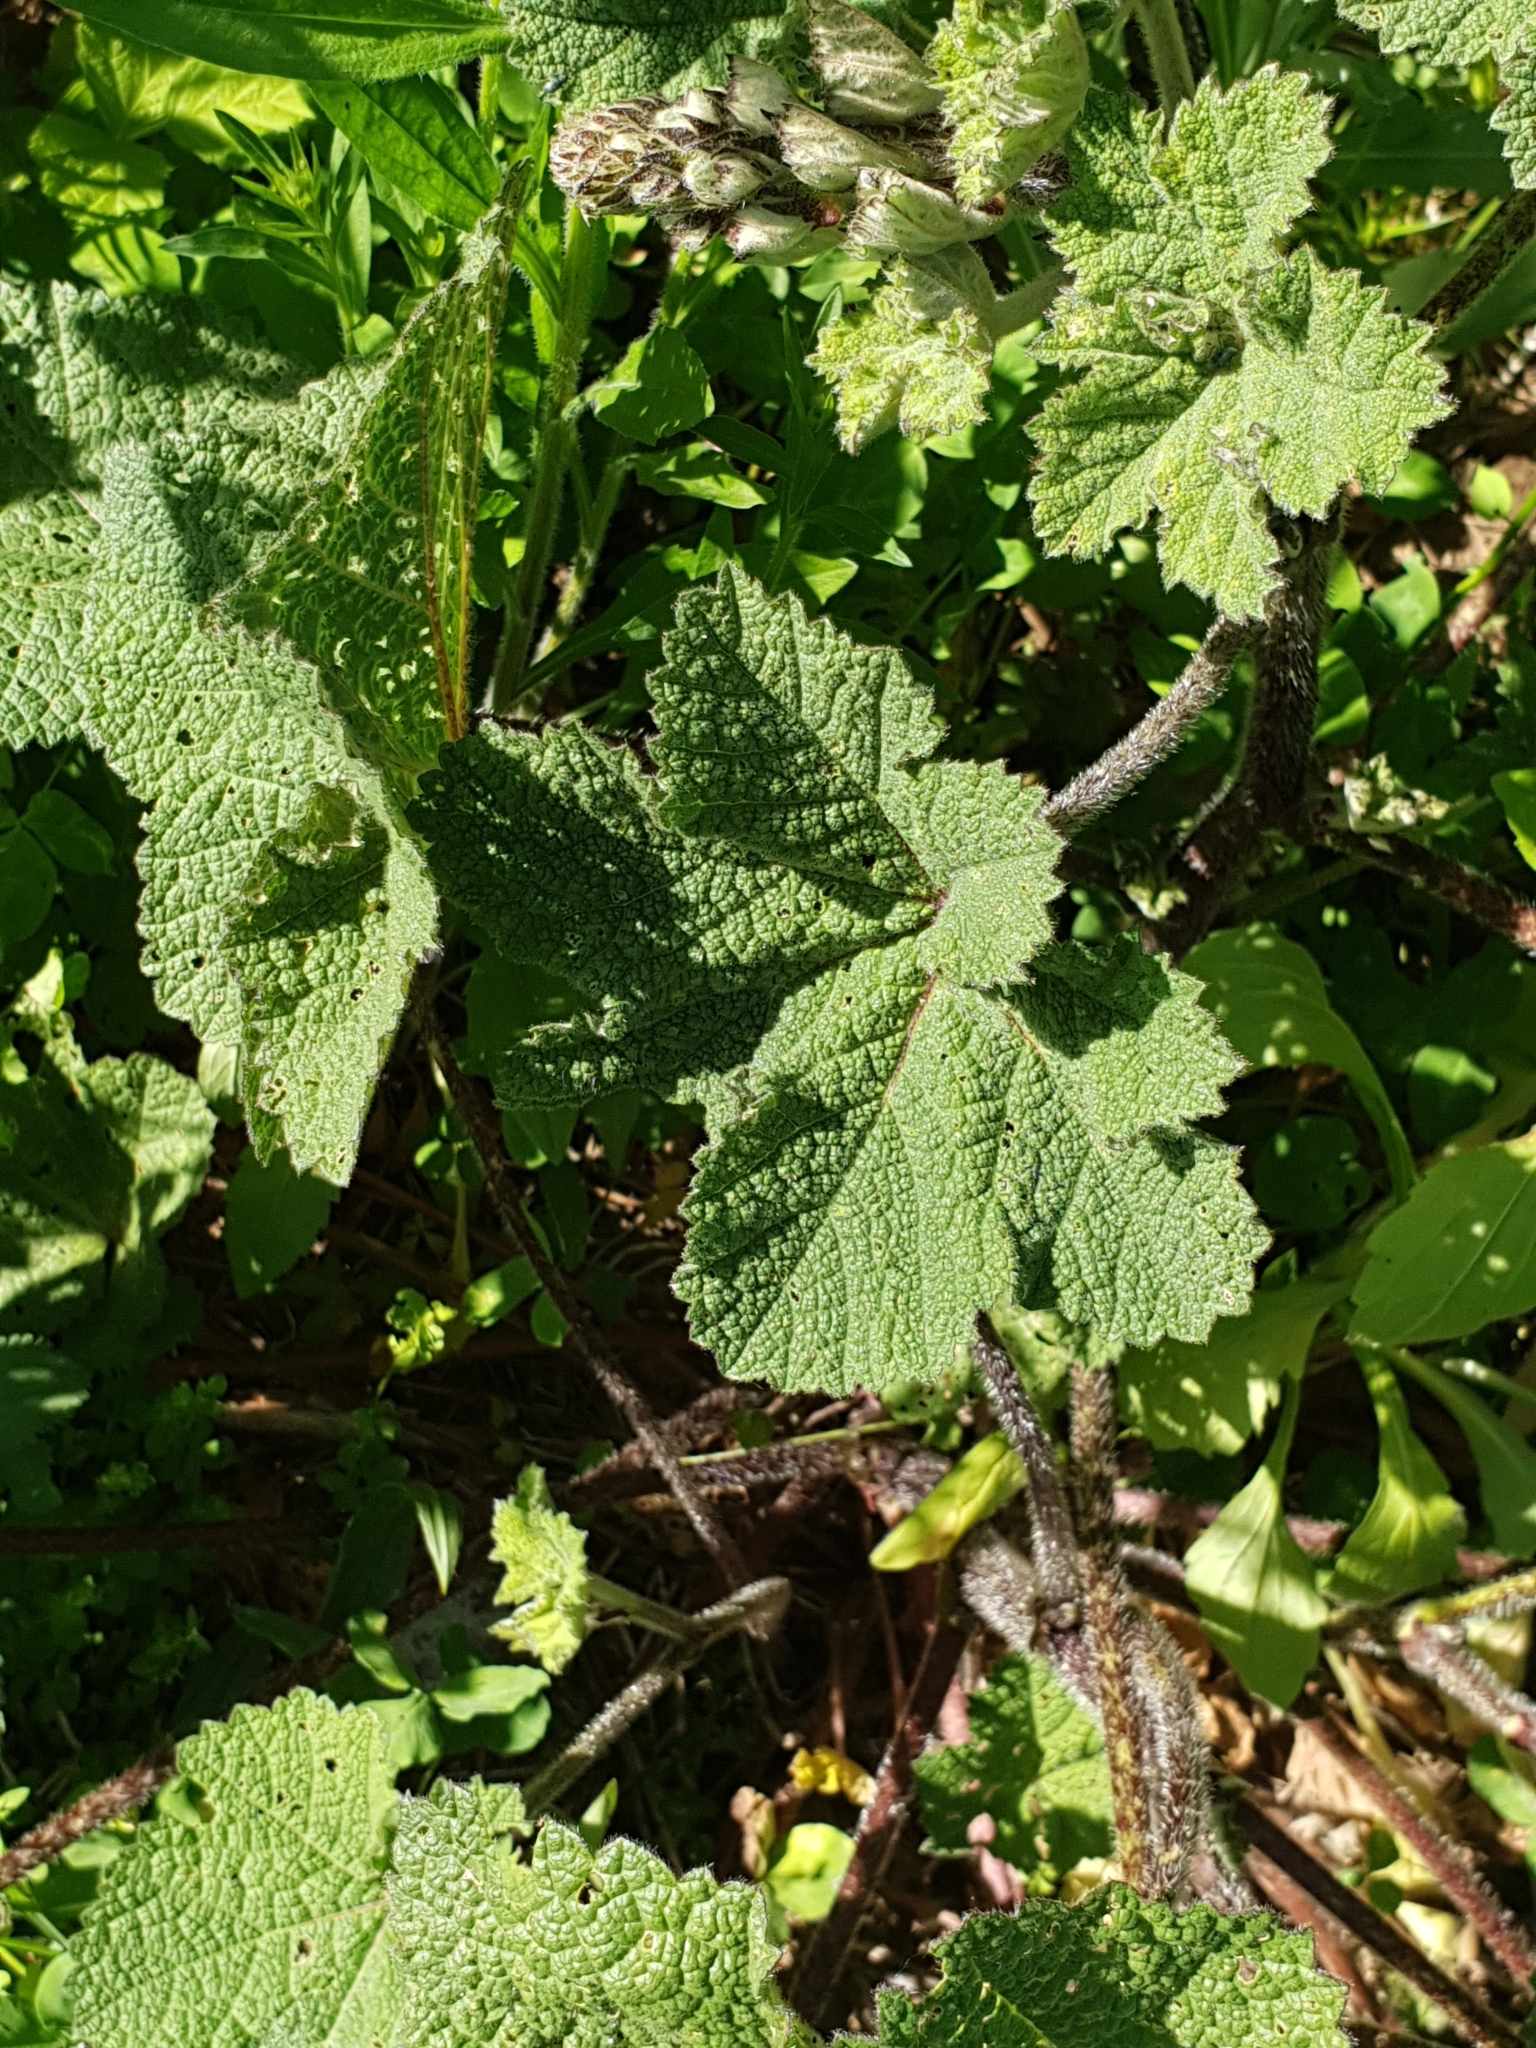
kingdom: Plantae
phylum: Tracheophyta
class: Magnoliopsida
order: Malvales
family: Malvaceae
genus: Alcea
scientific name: Alcea rugosa
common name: Russian hollyhock
